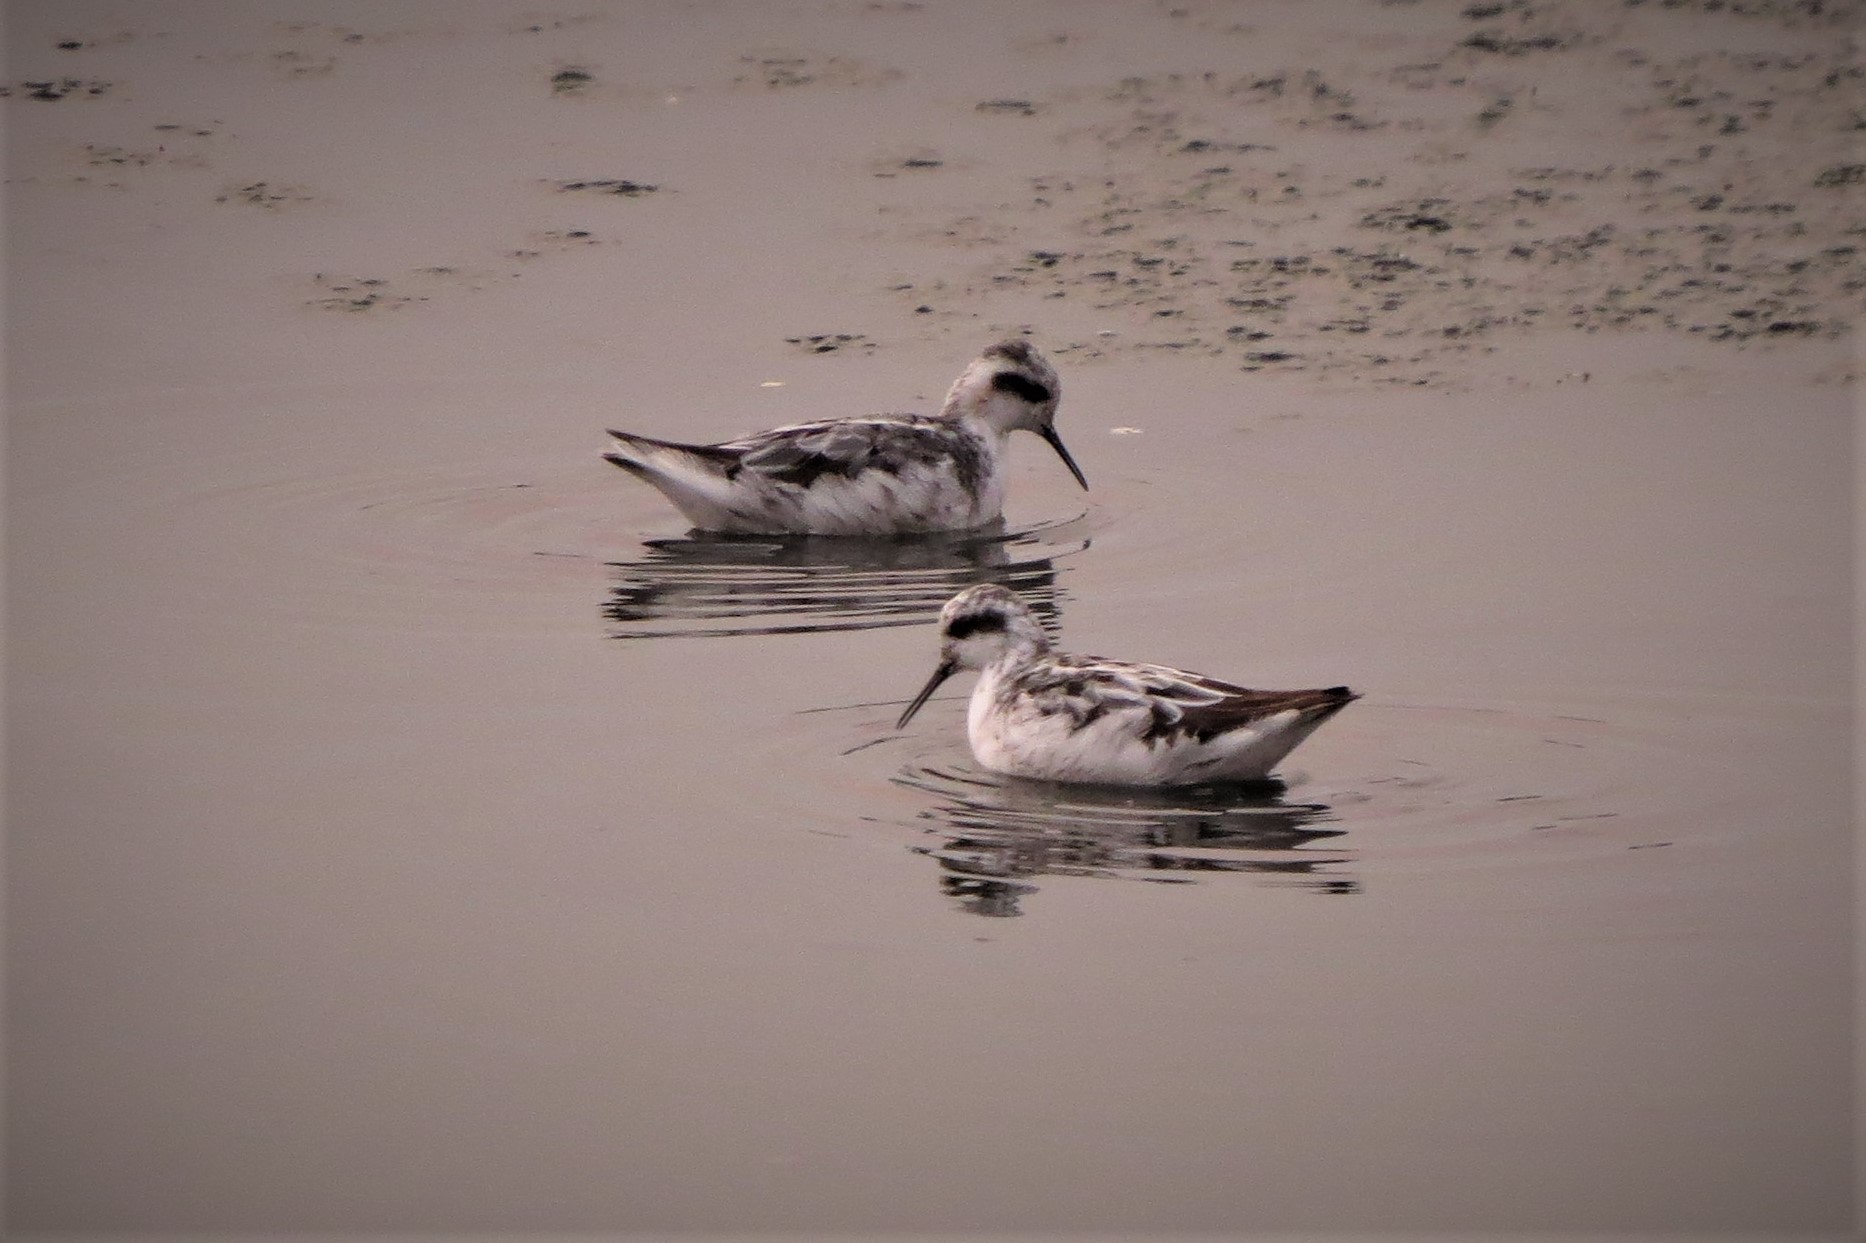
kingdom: Animalia
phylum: Chordata
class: Aves
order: Charadriiformes
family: Scolopacidae
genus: Phalaropus
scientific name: Phalaropus lobatus
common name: Red-necked phalarope
